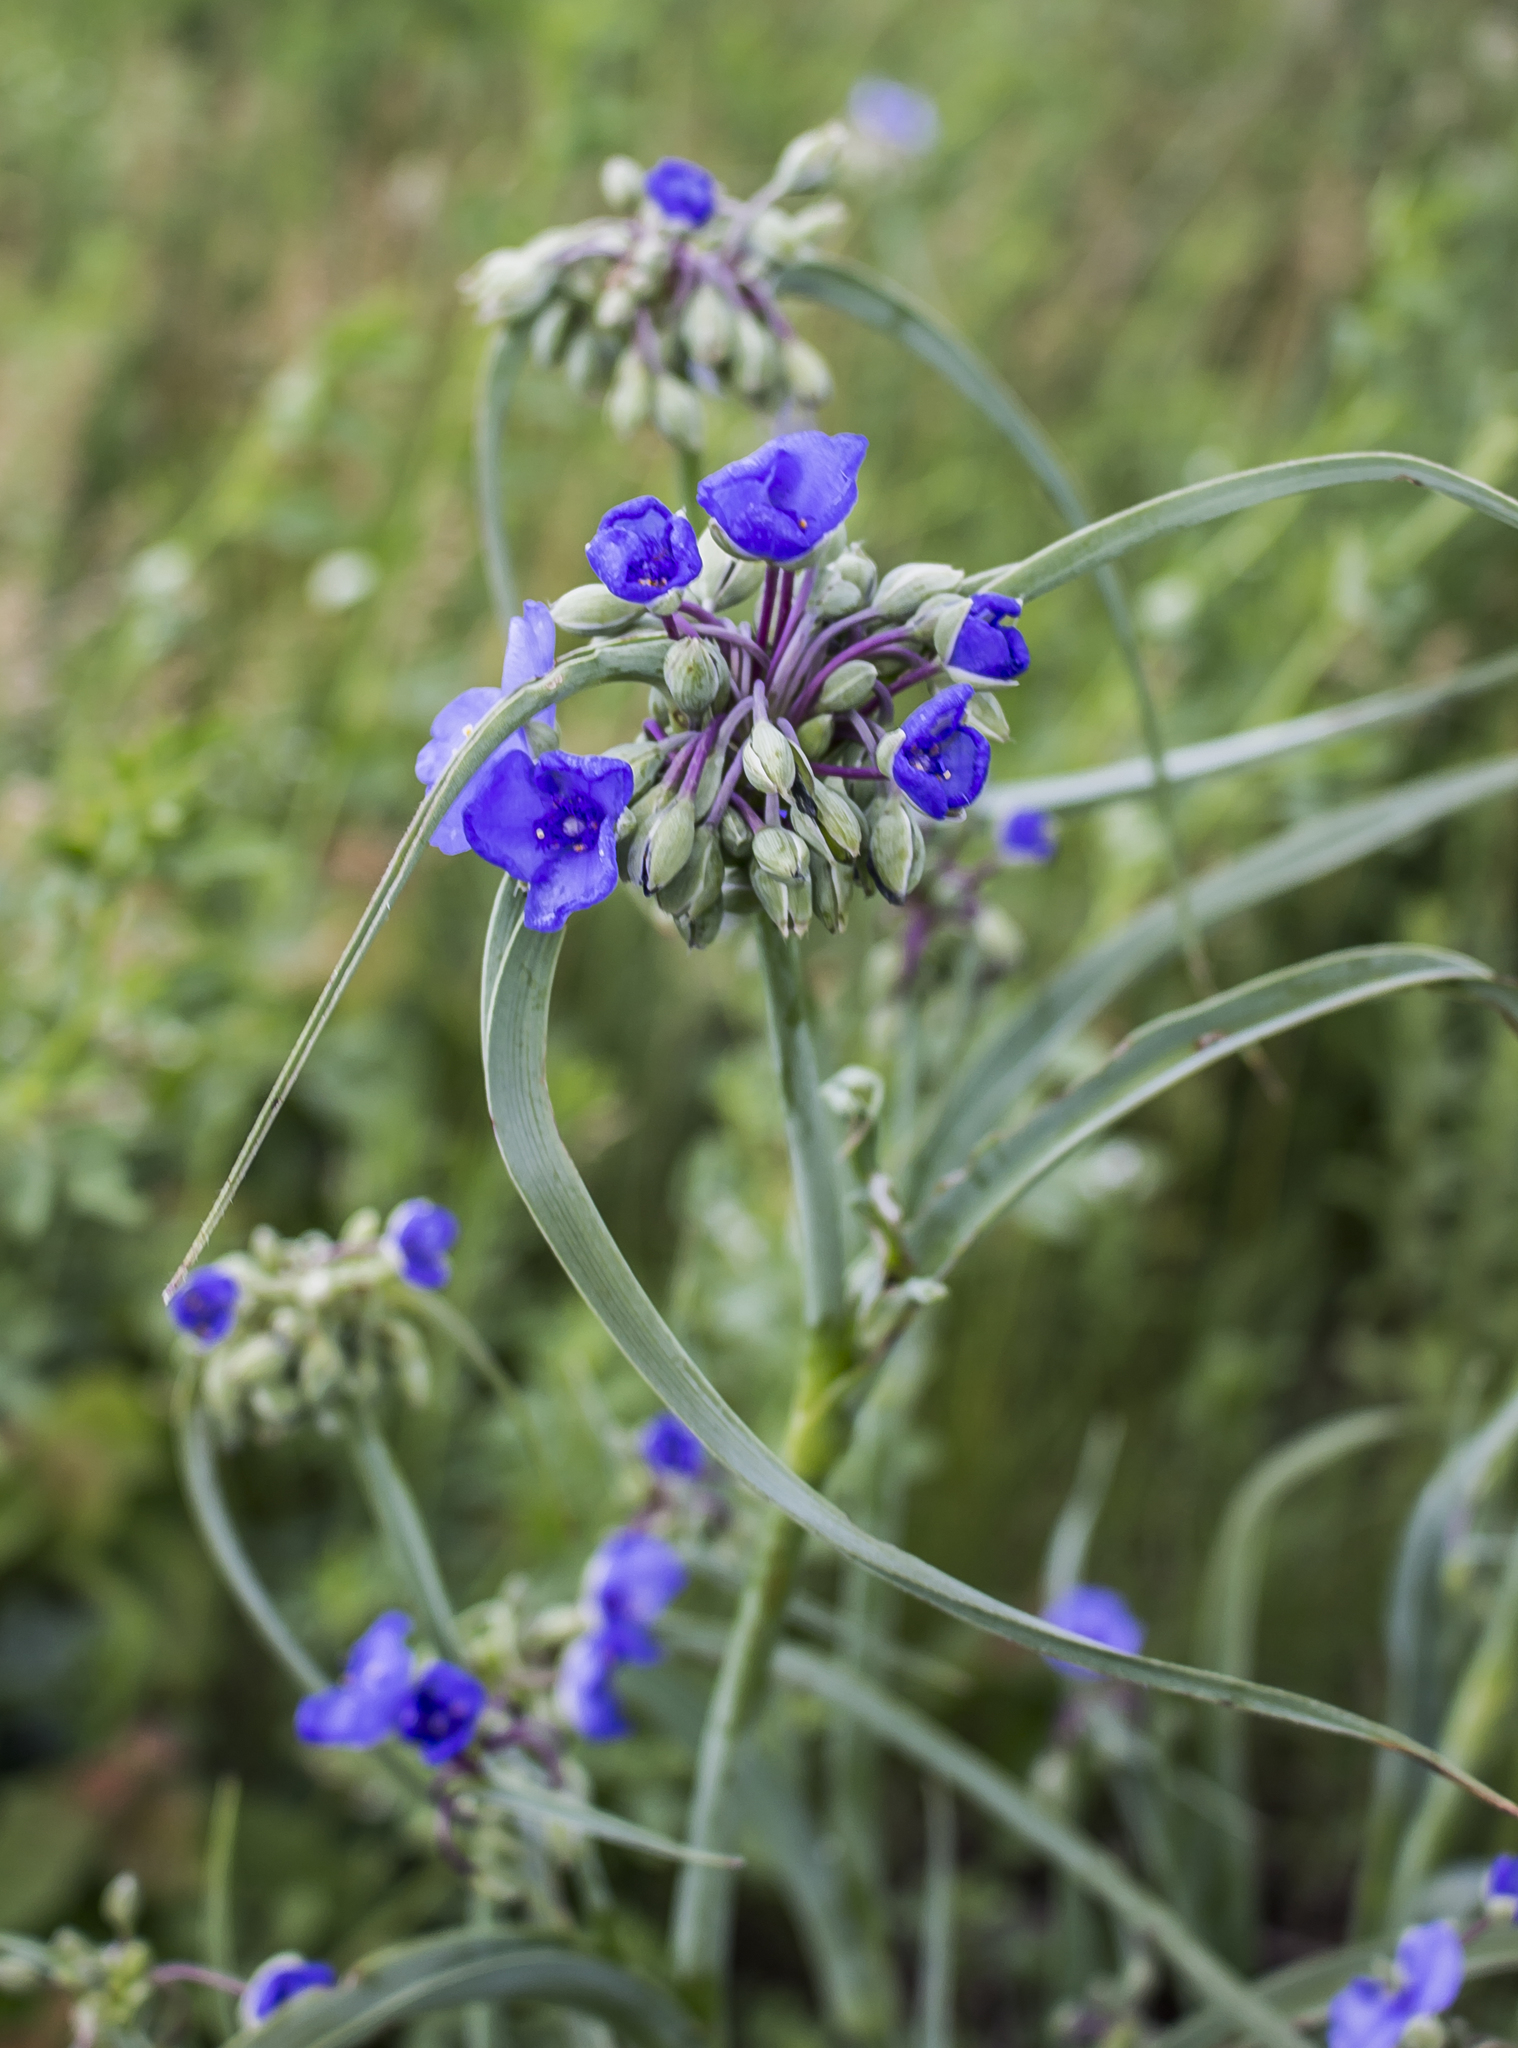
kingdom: Plantae
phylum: Tracheophyta
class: Liliopsida
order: Commelinales
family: Commelinaceae
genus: Tradescantia
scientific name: Tradescantia ohiensis
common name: Ohio spiderwort
